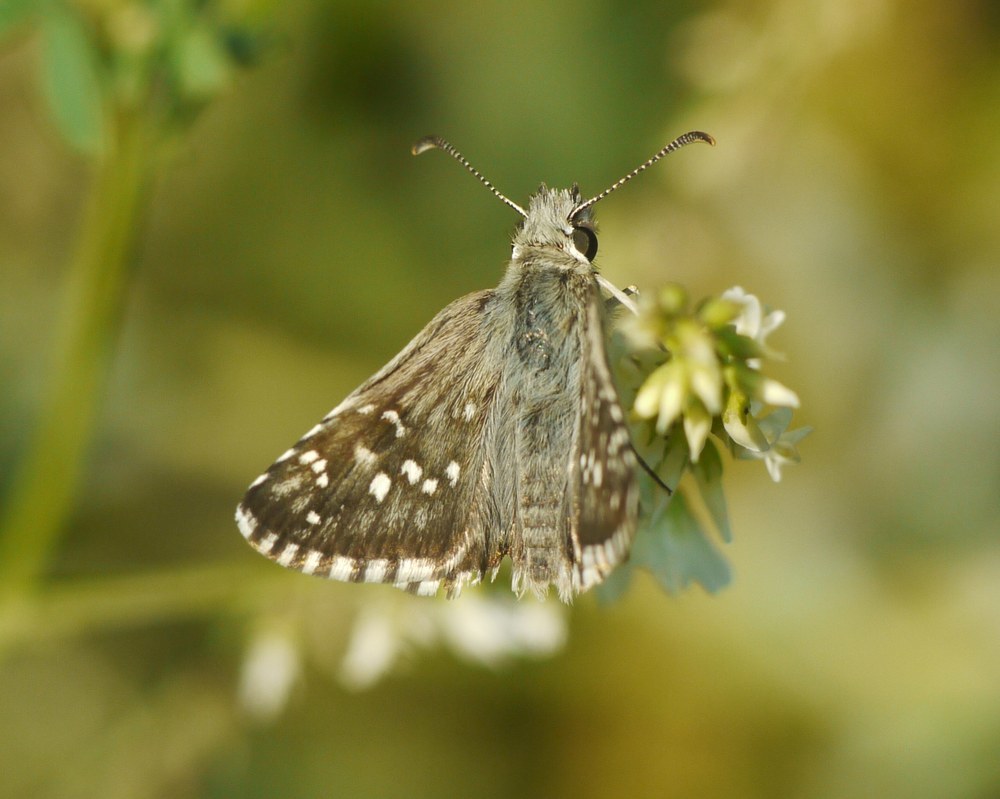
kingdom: Animalia
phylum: Arthropoda
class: Insecta
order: Lepidoptera
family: Hesperiidae
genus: Pyrgus
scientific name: Pyrgus armoricanus
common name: Oberthür's grizzled skipper
